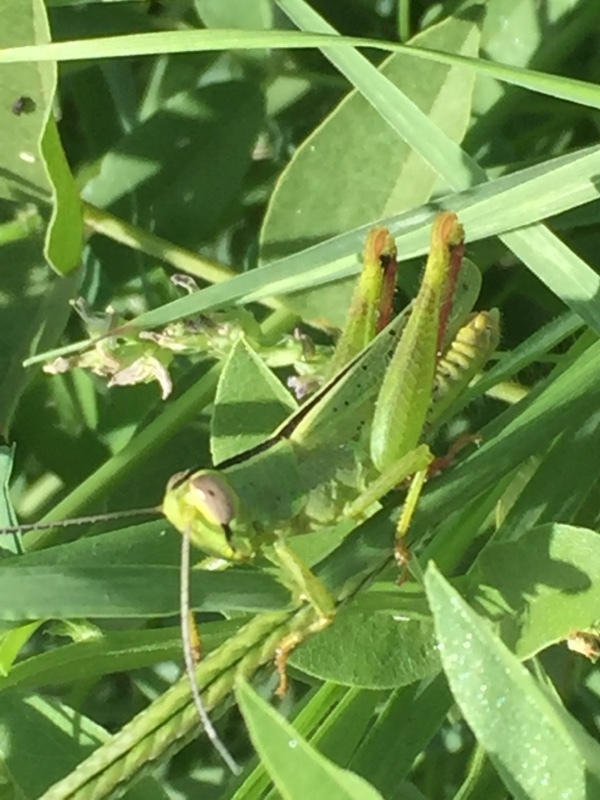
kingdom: Animalia
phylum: Arthropoda
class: Insecta
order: Orthoptera
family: Acrididae
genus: Heteracris
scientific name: Heteracris pterosticha
